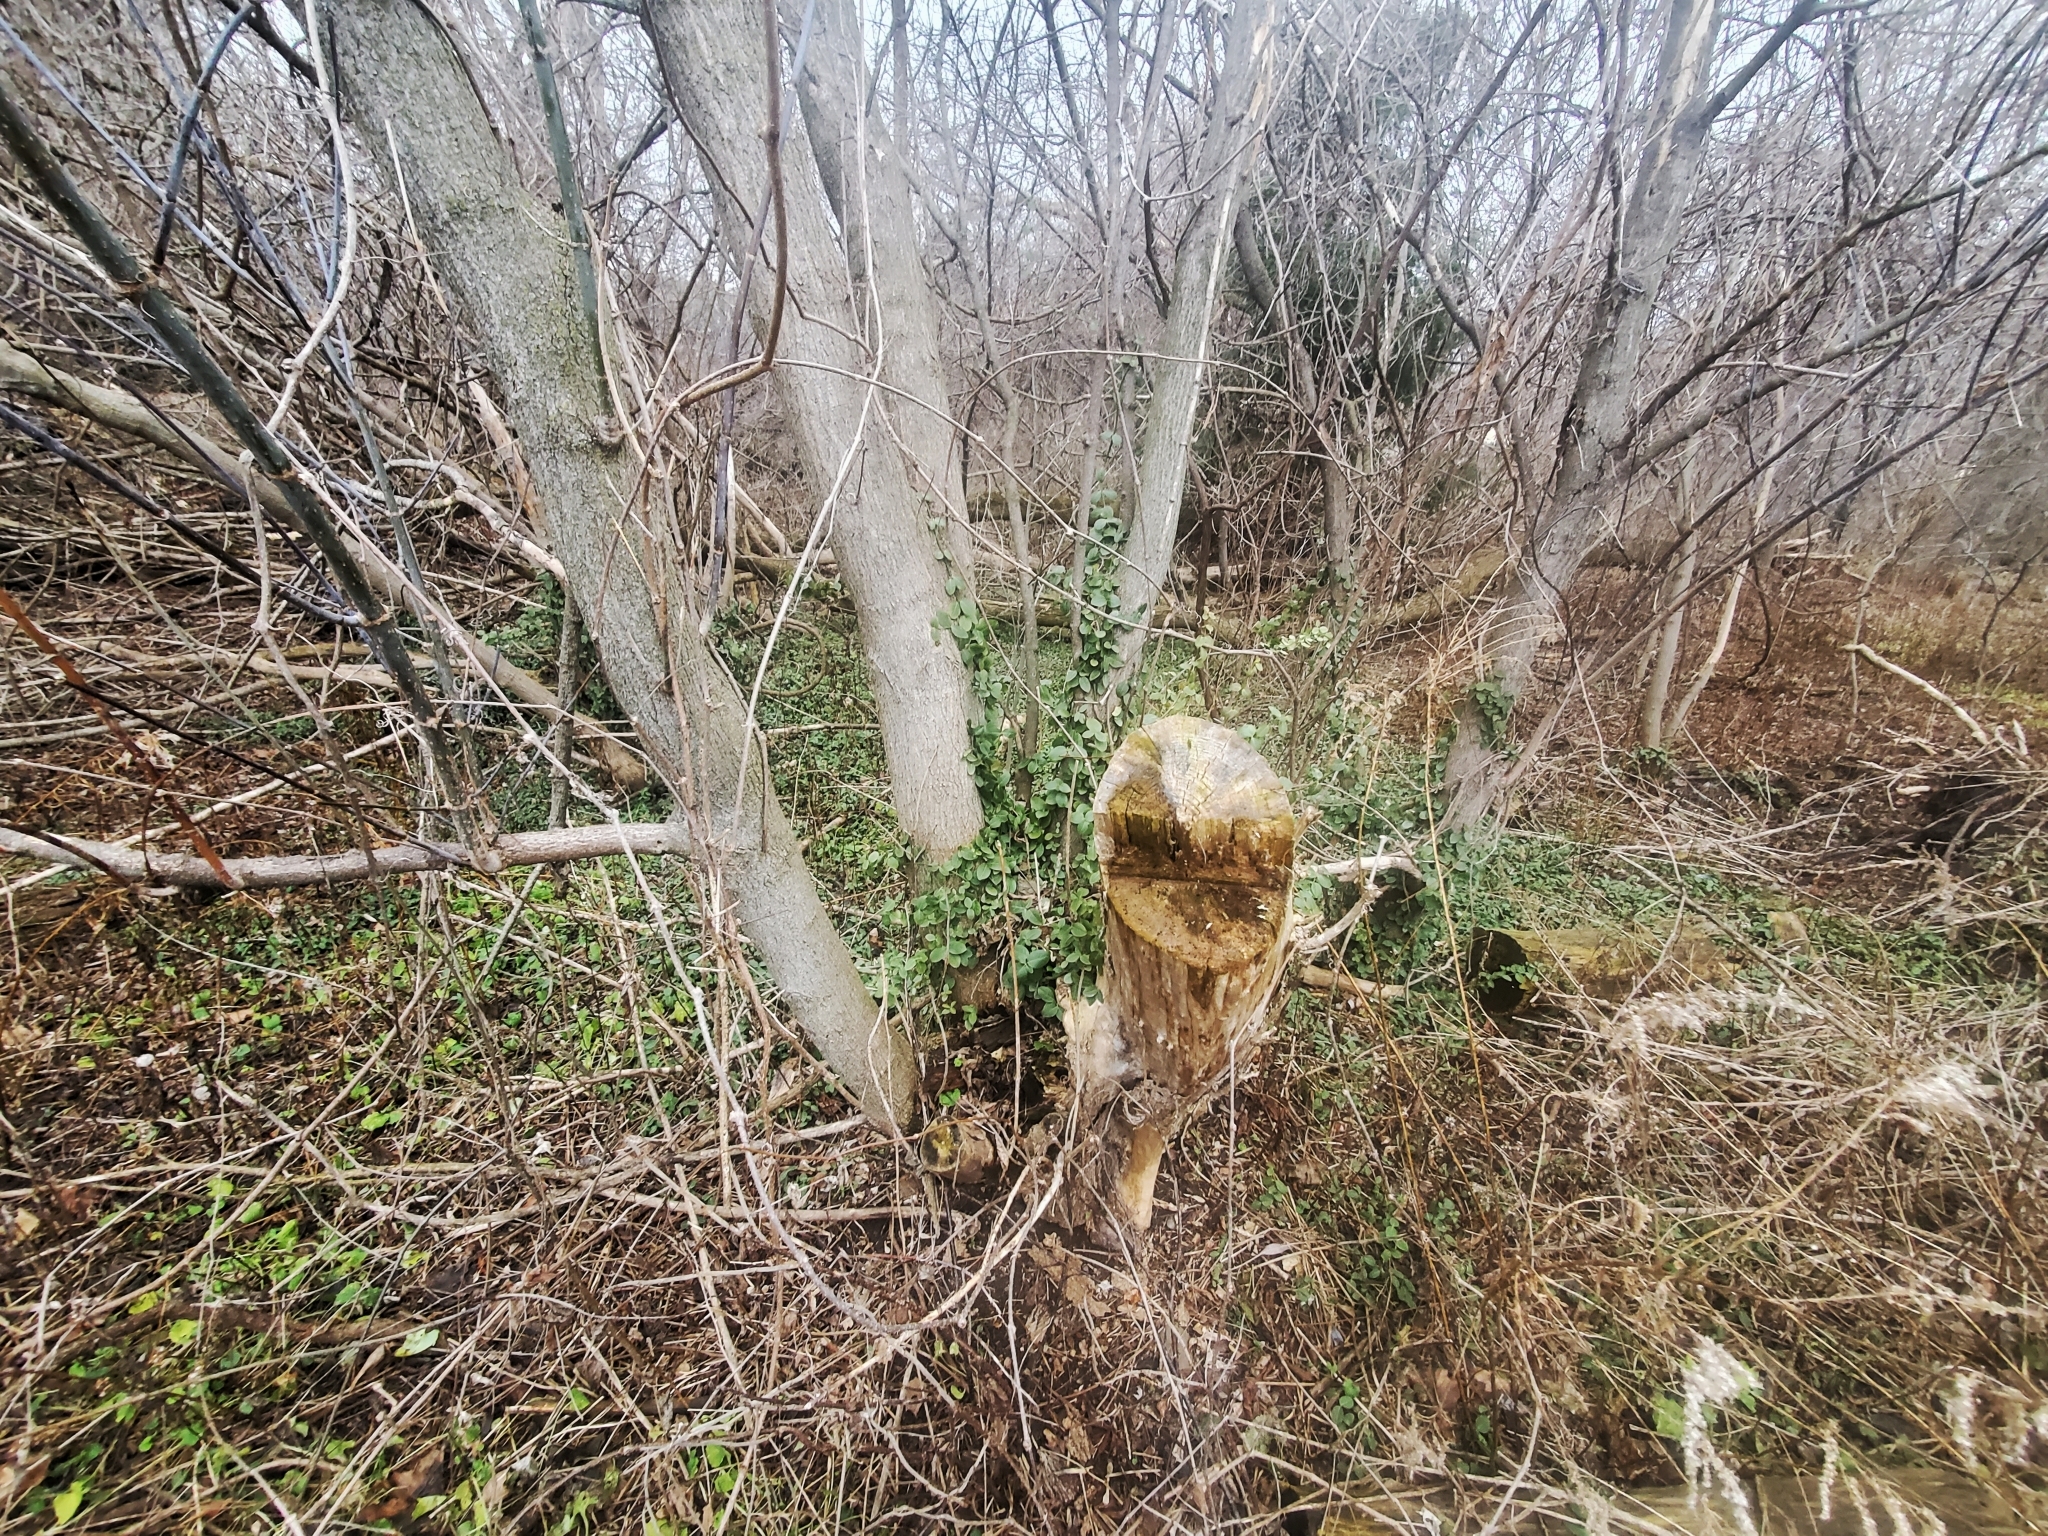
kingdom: Plantae
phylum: Tracheophyta
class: Magnoliopsida
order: Celastrales
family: Celastraceae
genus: Euonymus
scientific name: Euonymus fortunei
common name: Climbing euonymus
